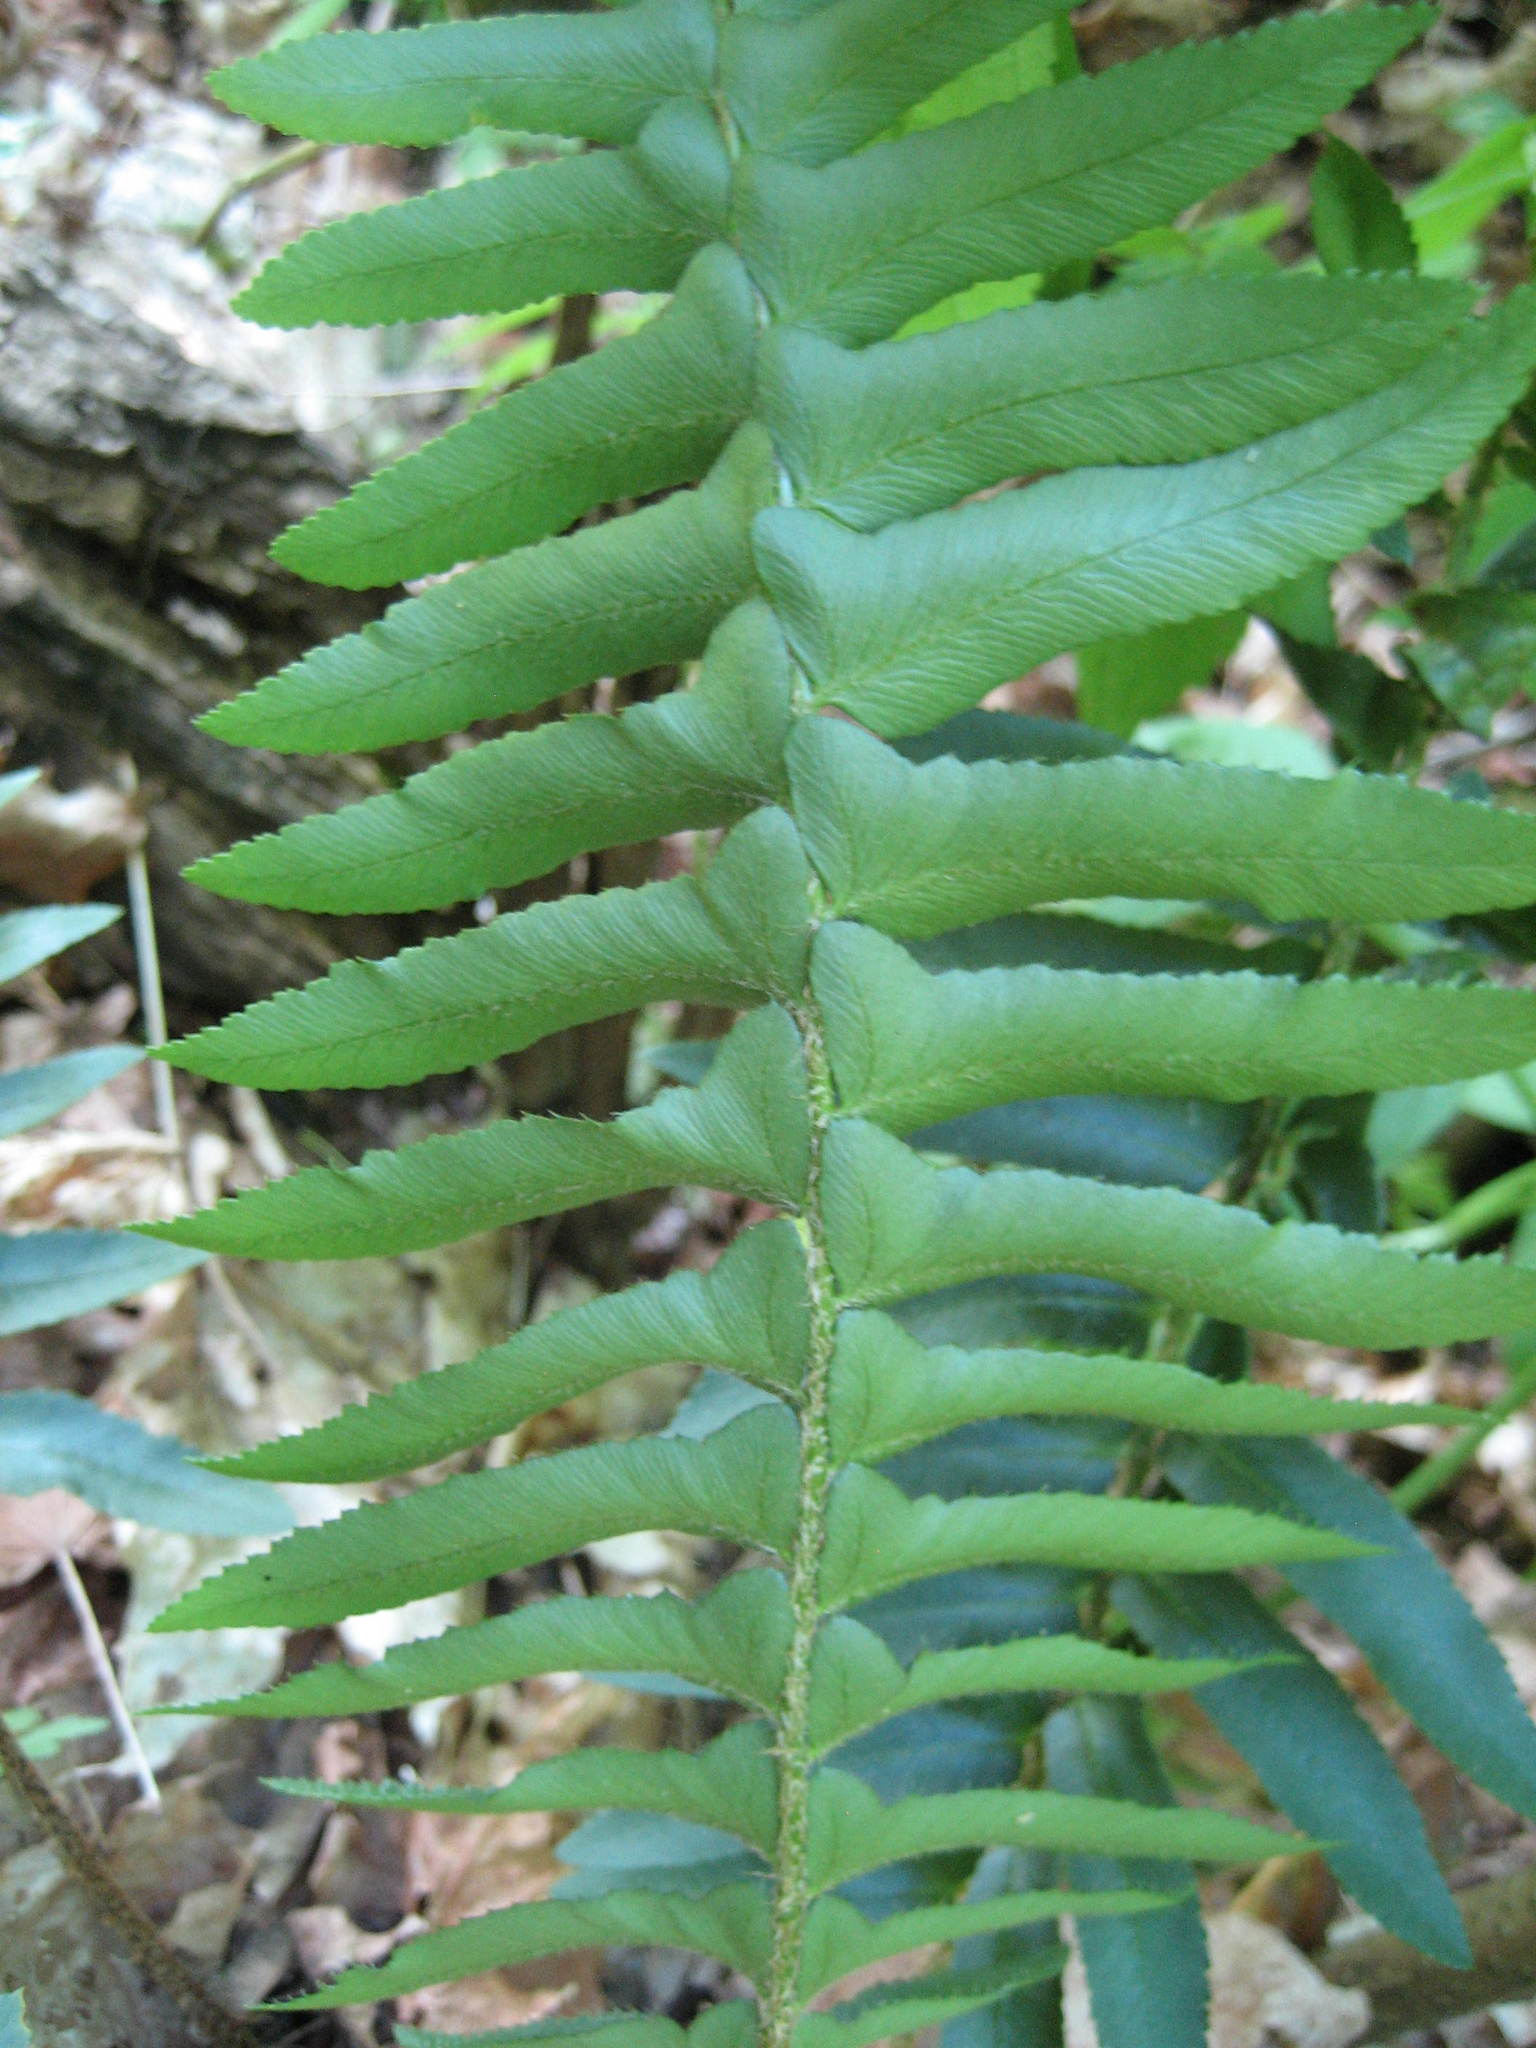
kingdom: Plantae
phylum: Tracheophyta
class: Polypodiopsida
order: Polypodiales
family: Dryopteridaceae
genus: Polystichum
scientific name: Polystichum acrostichoides
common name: Christmas fern
